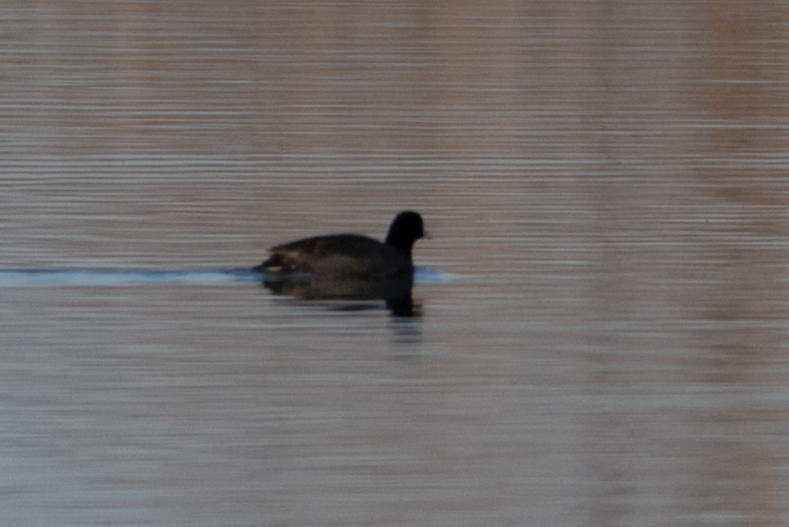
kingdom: Animalia
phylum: Chordata
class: Aves
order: Gruiformes
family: Rallidae
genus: Fulica
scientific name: Fulica americana
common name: American coot
